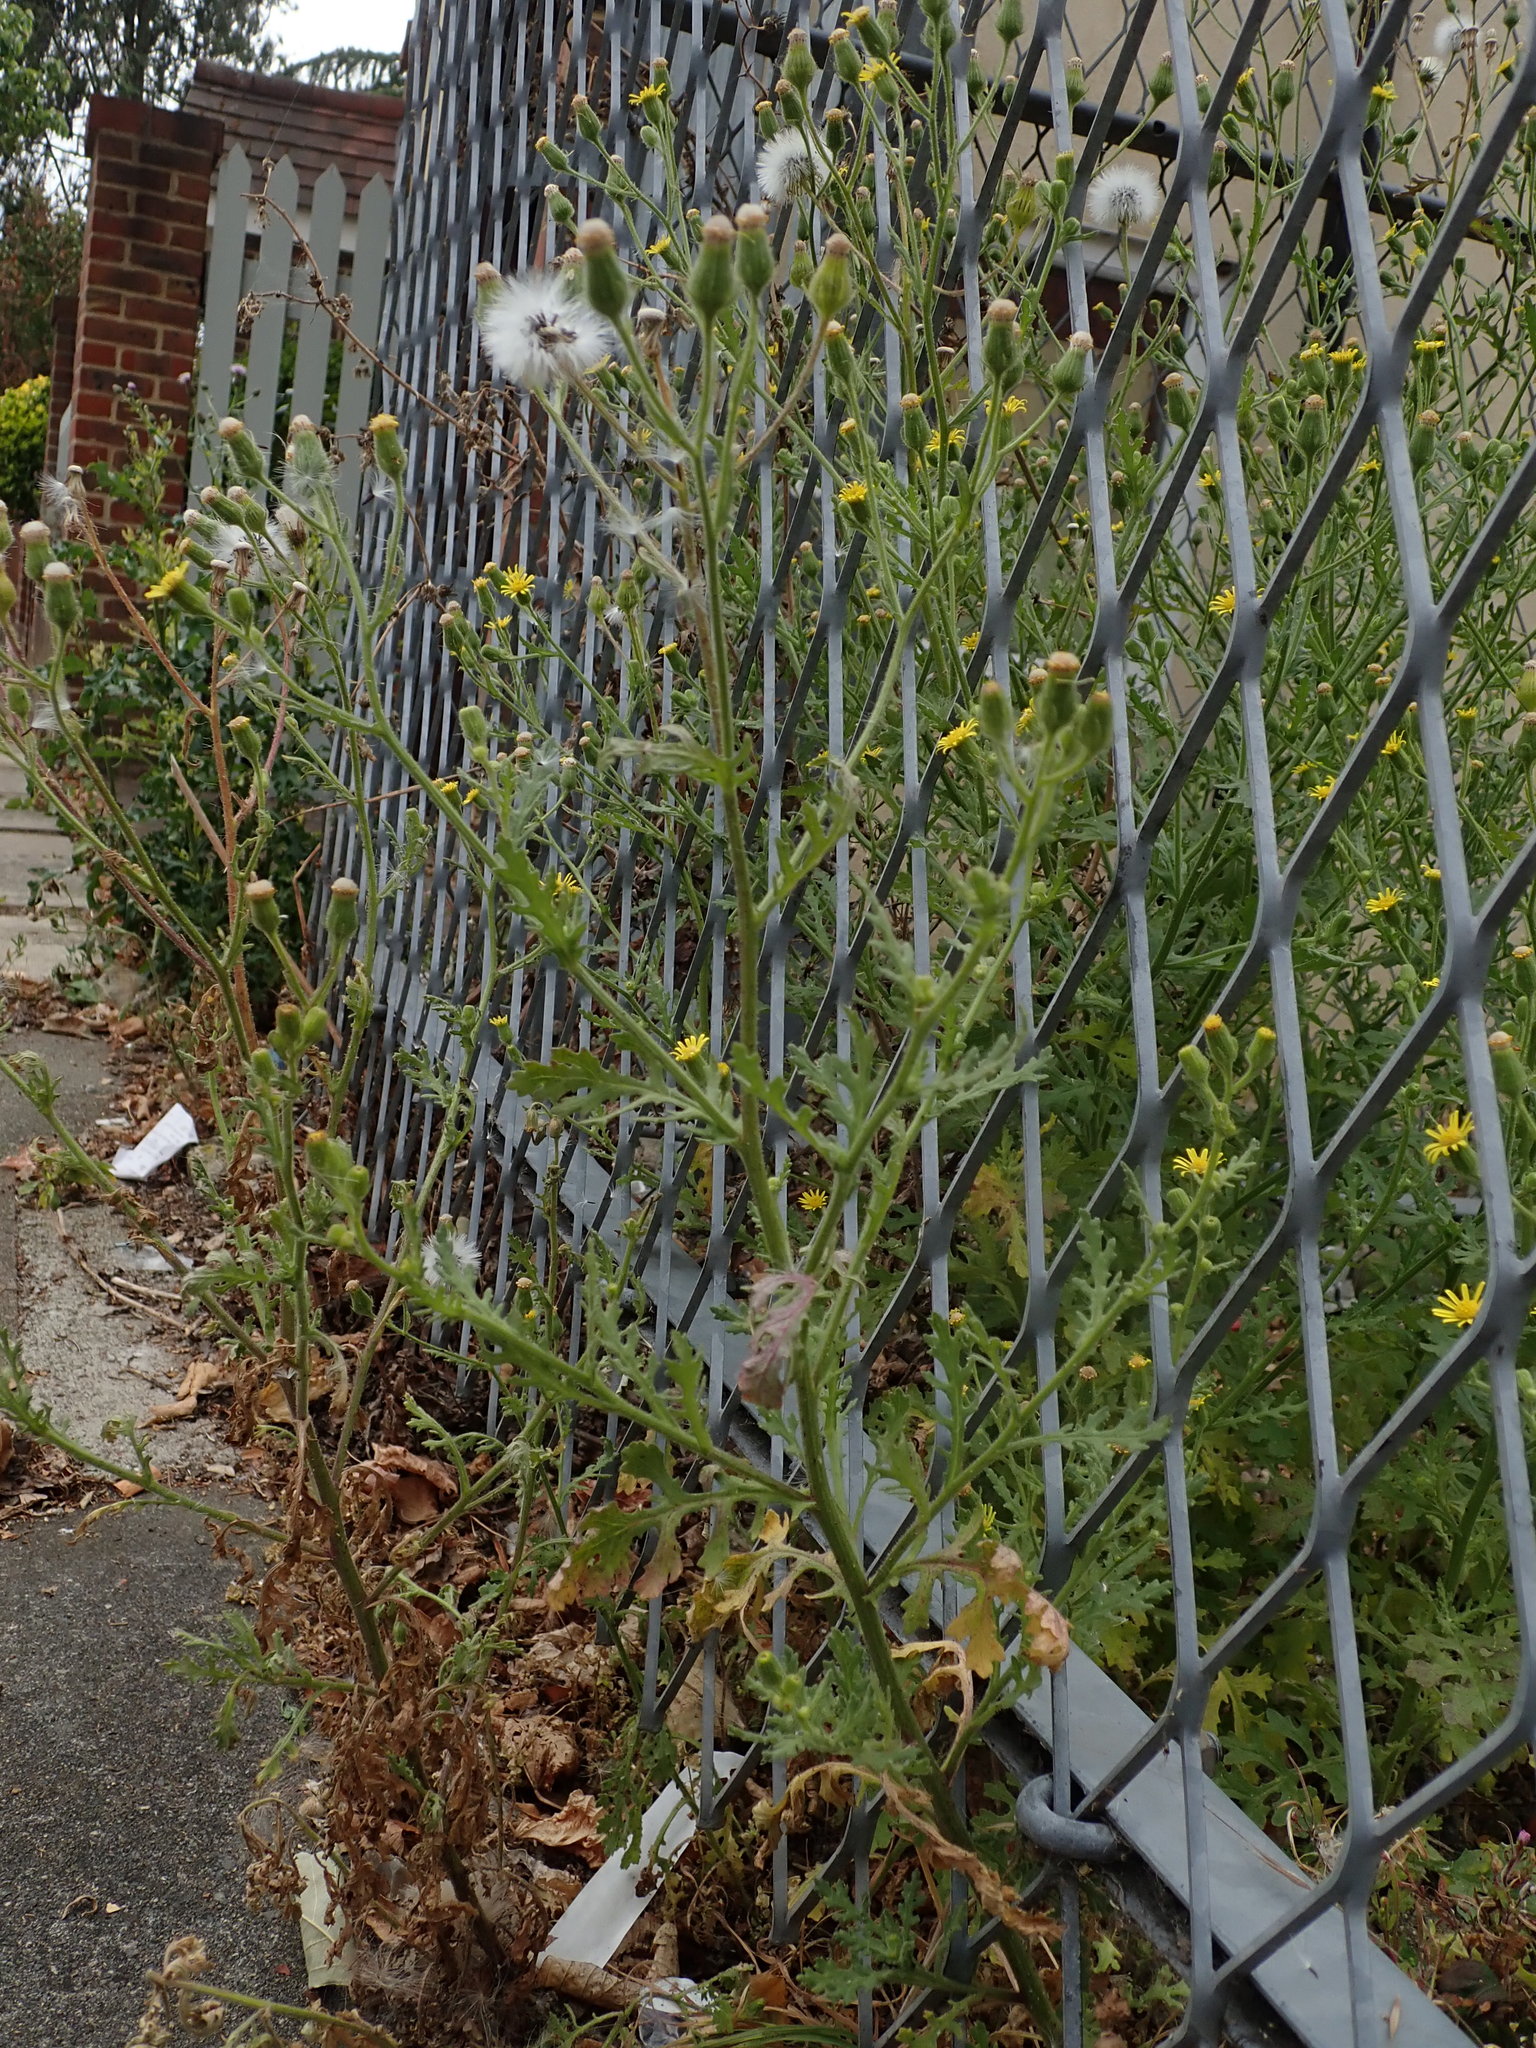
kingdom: Plantae
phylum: Tracheophyta
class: Magnoliopsida
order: Asterales
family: Asteraceae
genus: Senecio
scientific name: Senecio viscosus
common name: Sticky groundsel
